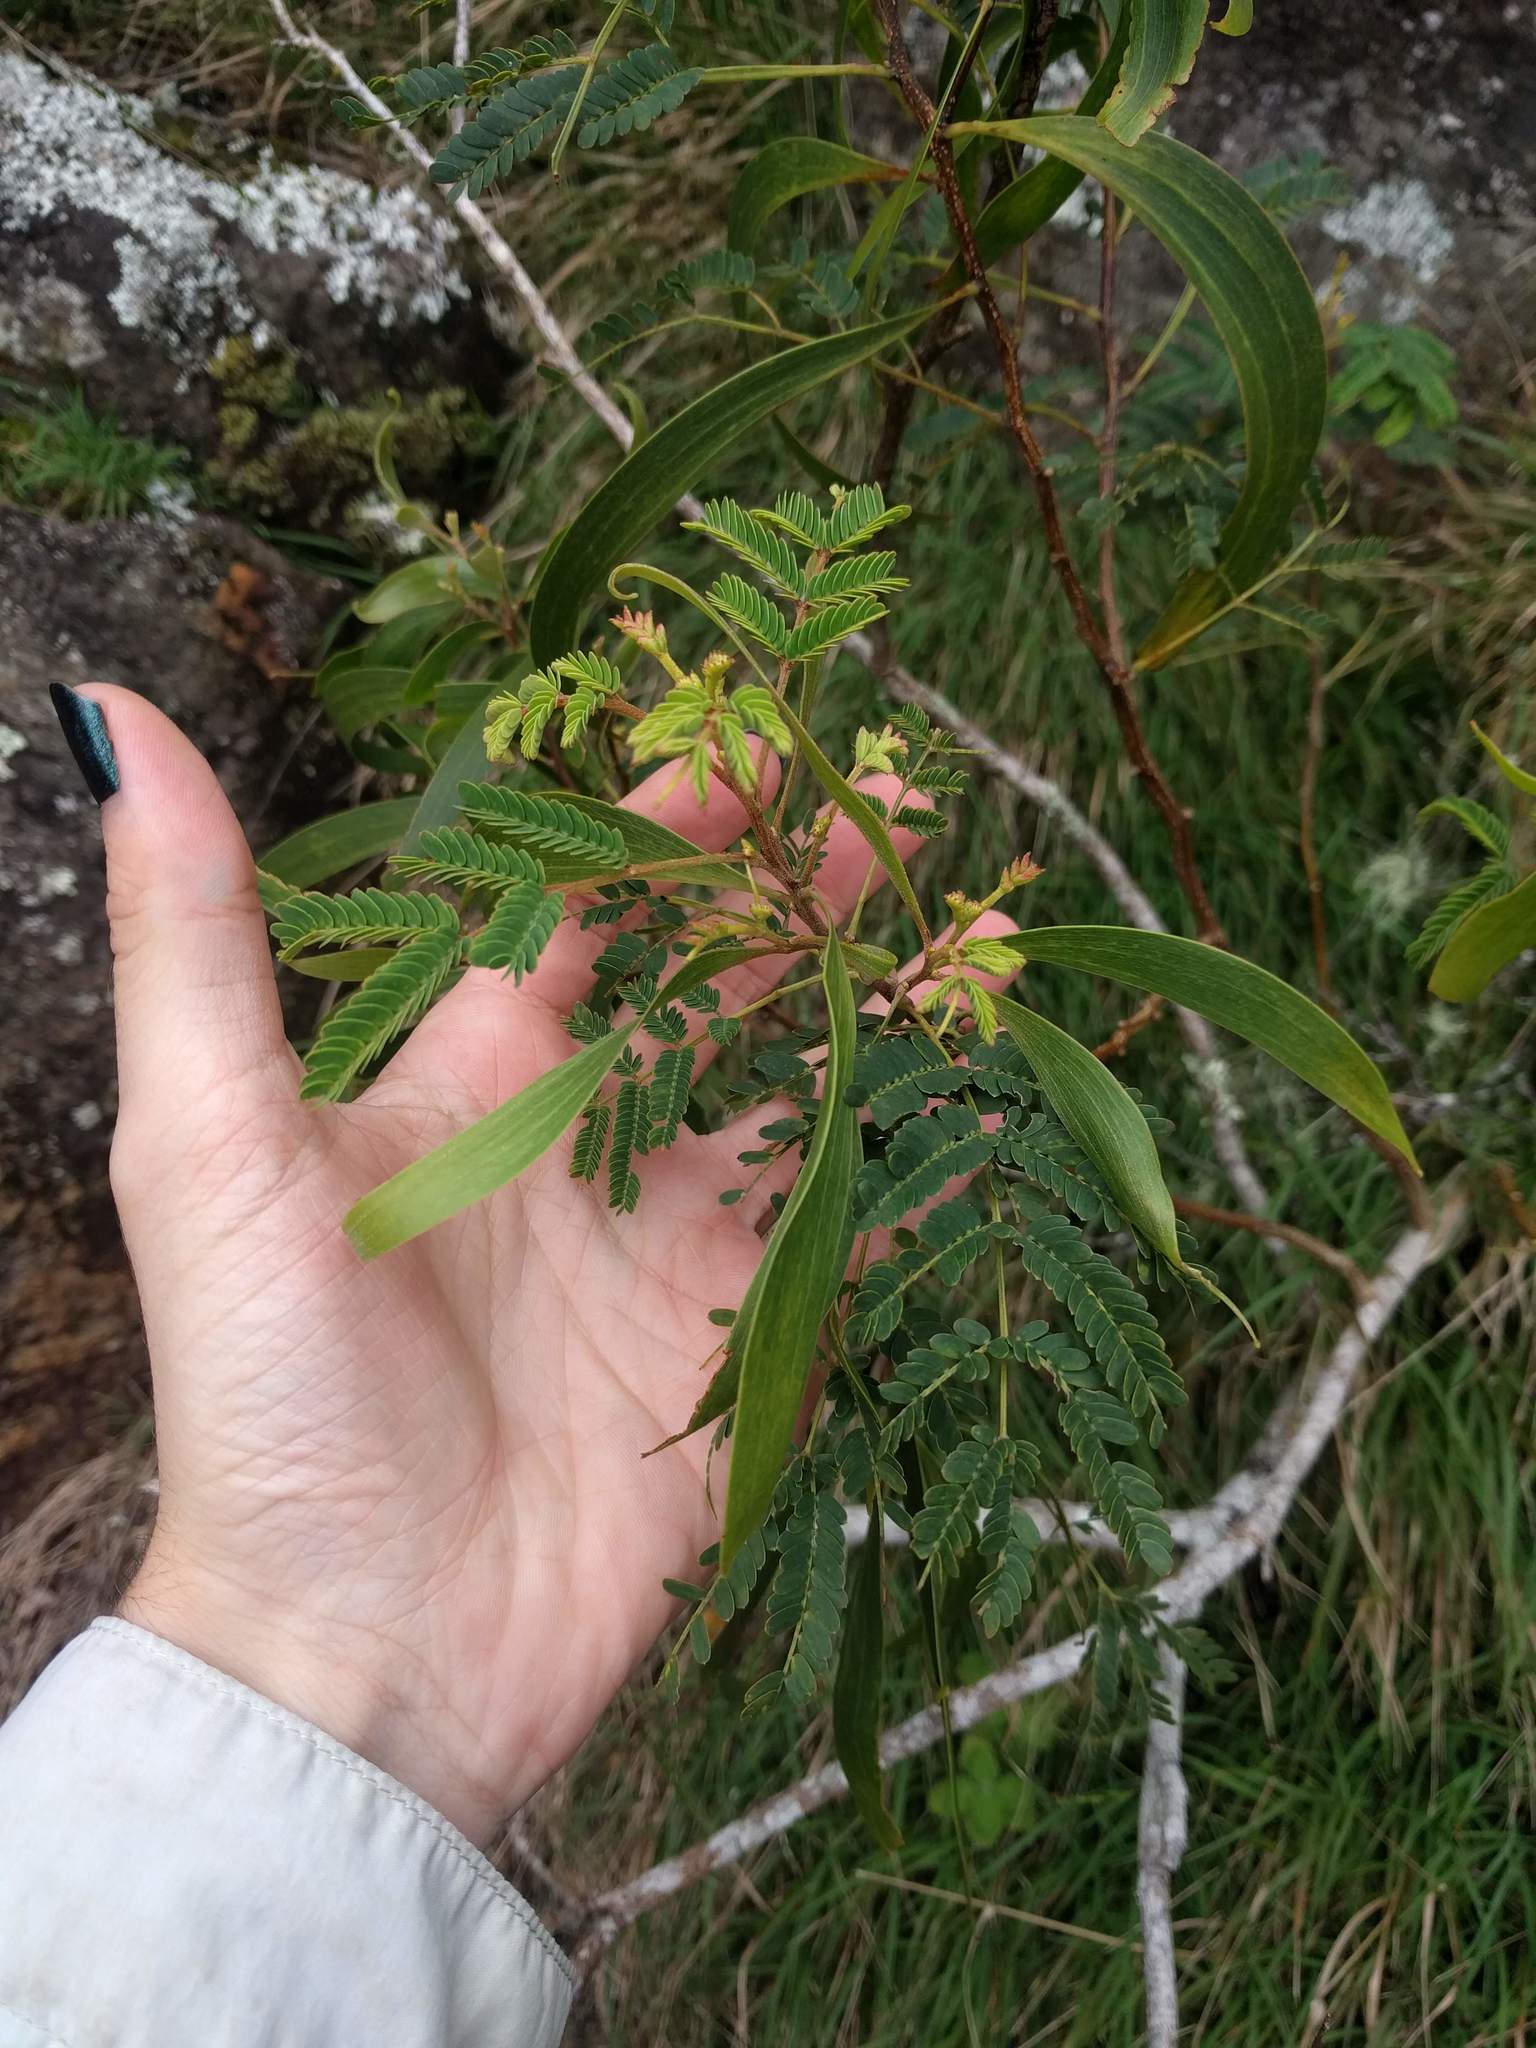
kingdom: Plantae
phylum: Tracheophyta
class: Magnoliopsida
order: Fabales
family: Fabaceae
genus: Acacia
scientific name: Acacia koa
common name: Gray koa
